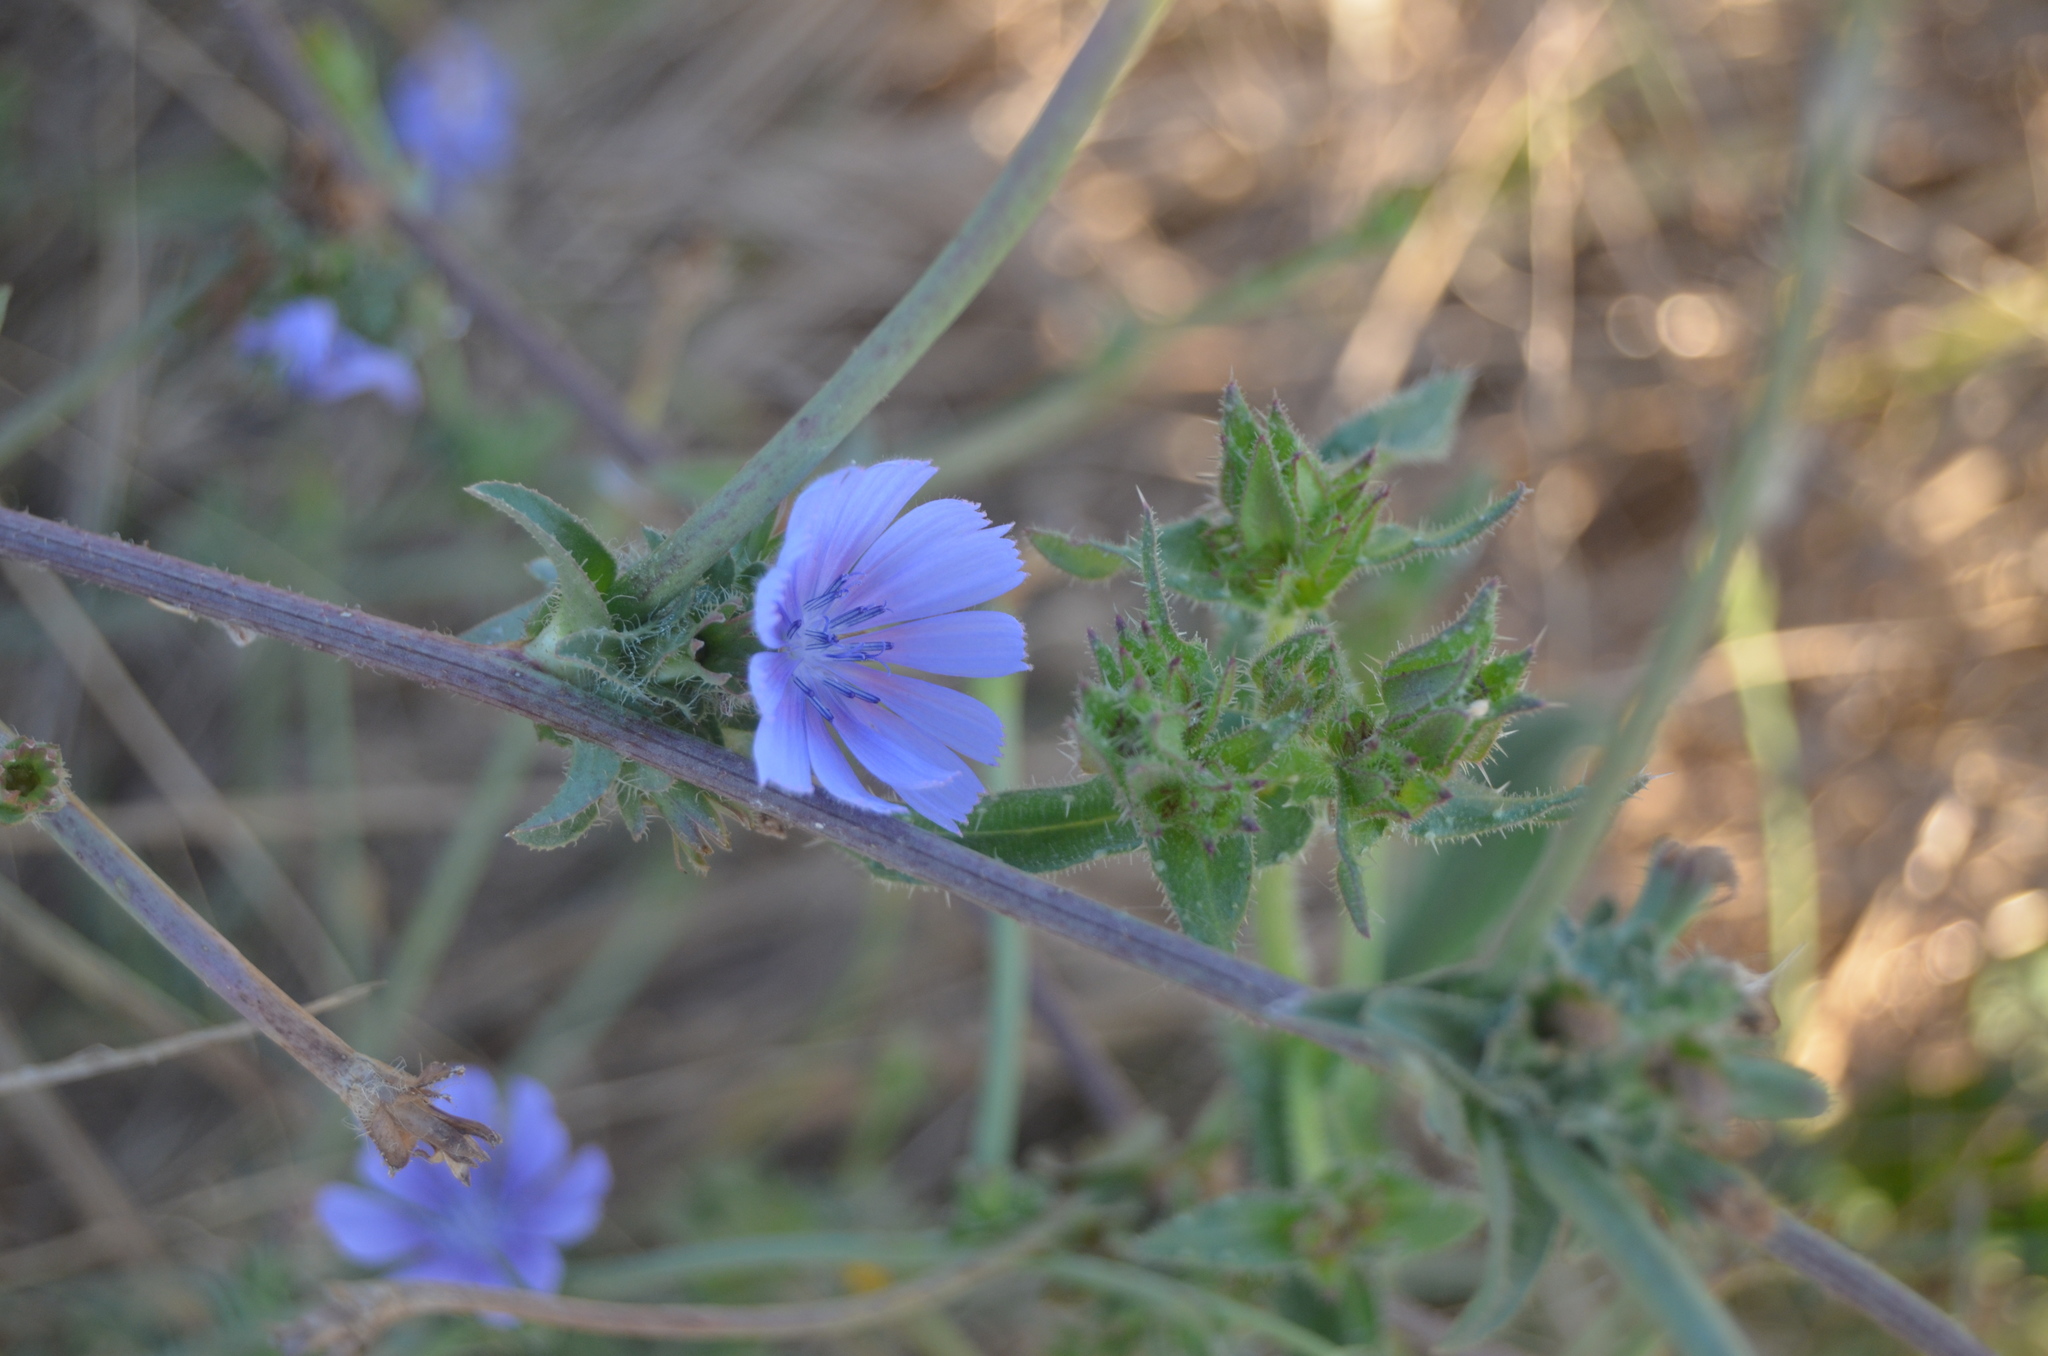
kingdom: Plantae
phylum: Tracheophyta
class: Magnoliopsida
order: Asterales
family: Asteraceae
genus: Cichorium
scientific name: Cichorium intybus
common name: Chicory
